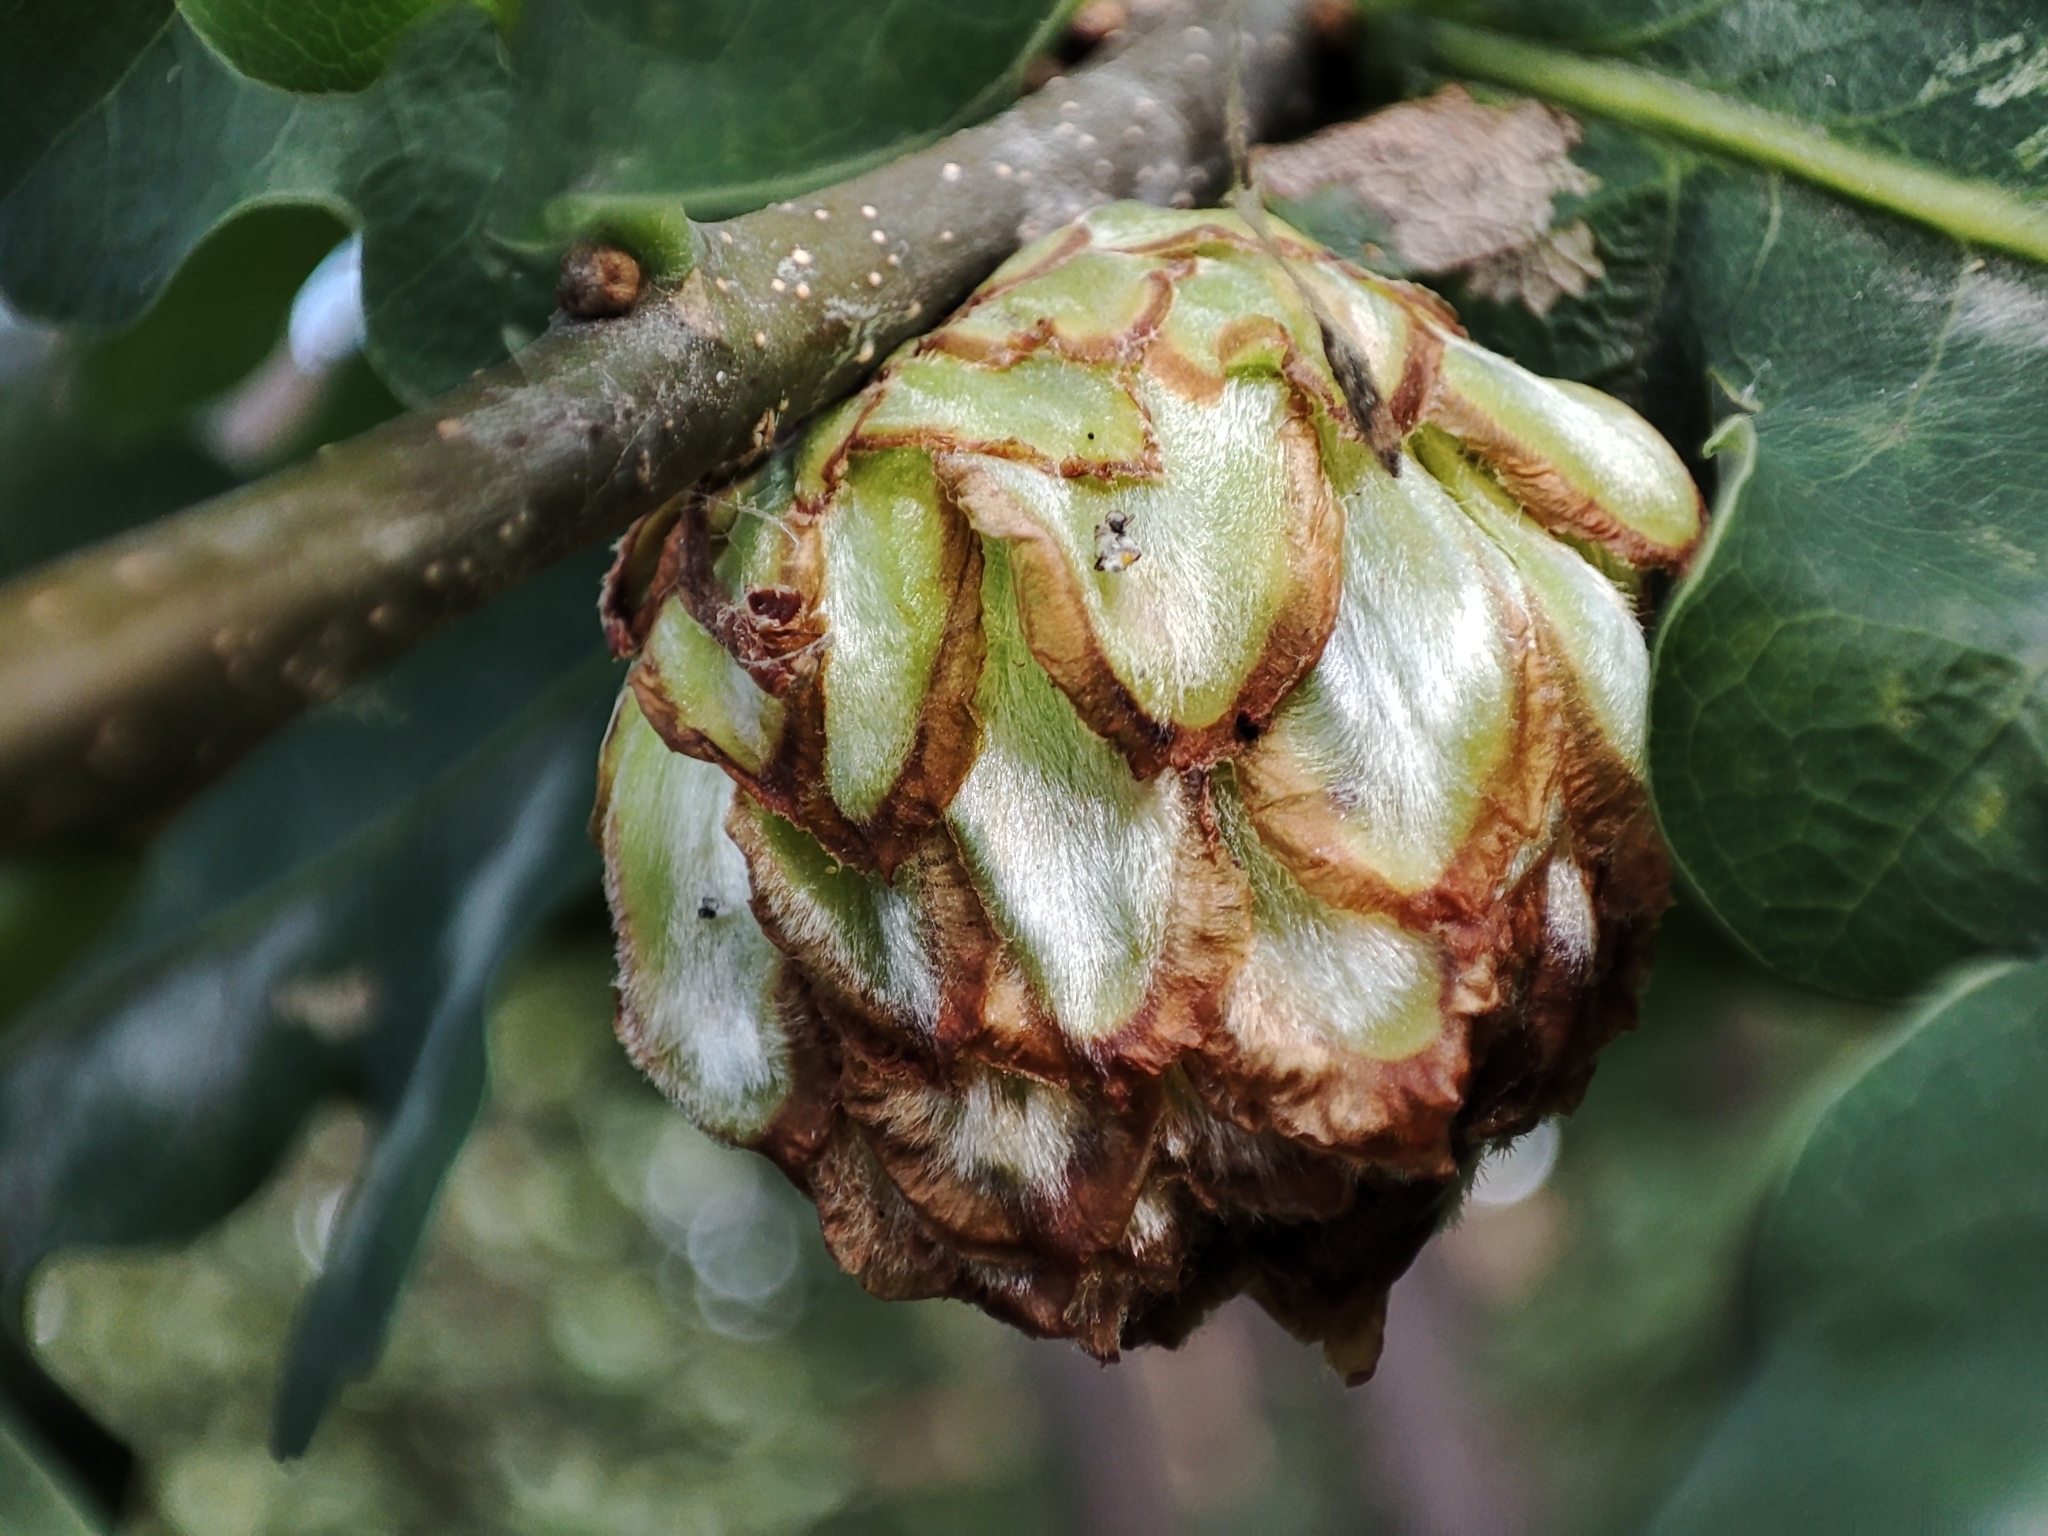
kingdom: Animalia
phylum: Arthropoda
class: Insecta
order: Hymenoptera
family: Cynipidae
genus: Andricus
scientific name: Andricus foecundatrix
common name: Artichoke gall
